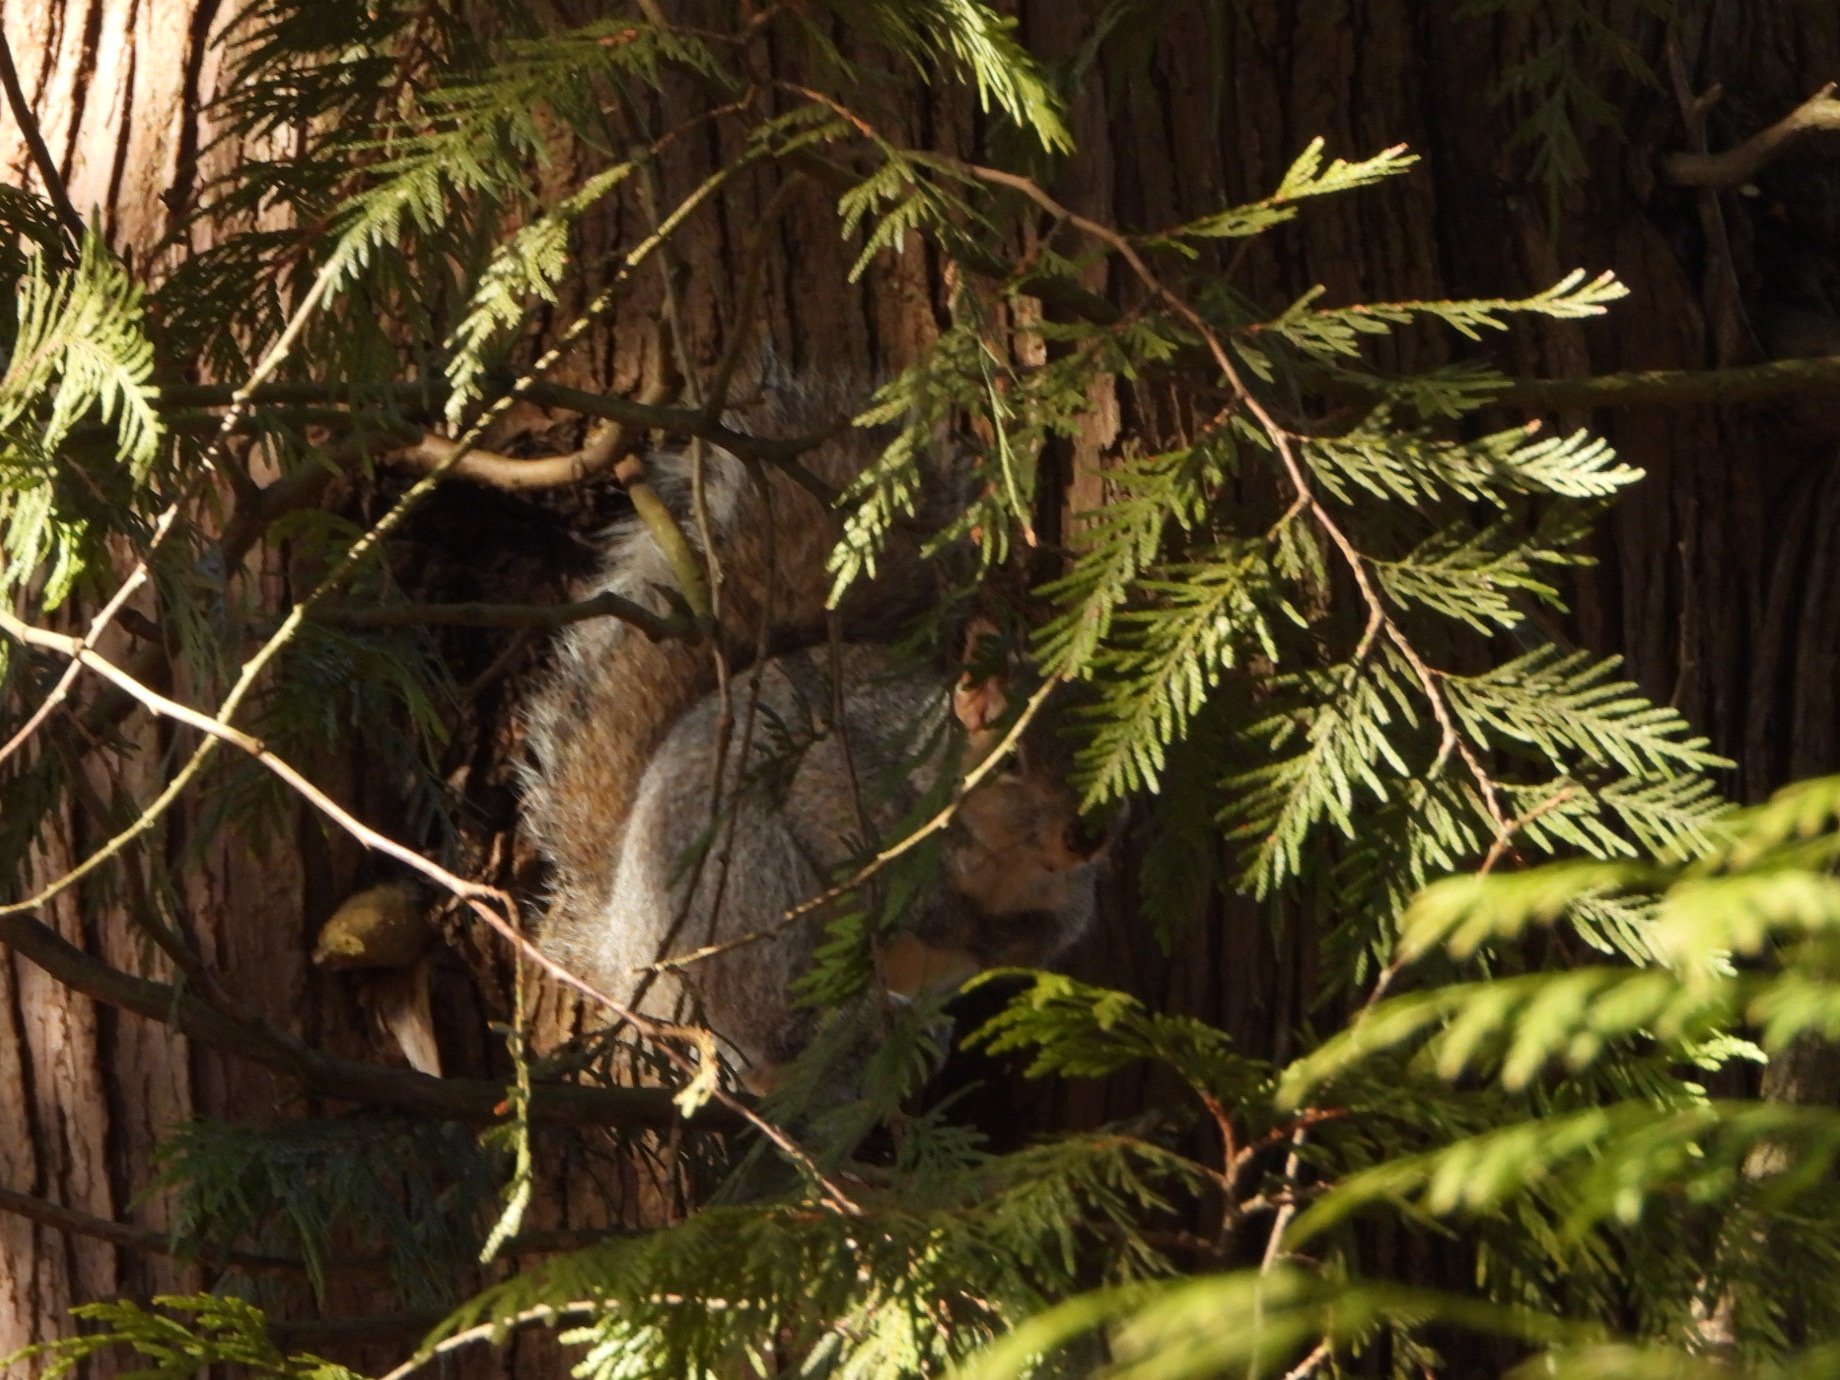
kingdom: Animalia
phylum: Chordata
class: Mammalia
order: Rodentia
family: Sciuridae
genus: Sciurus
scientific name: Sciurus carolinensis
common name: Eastern gray squirrel
